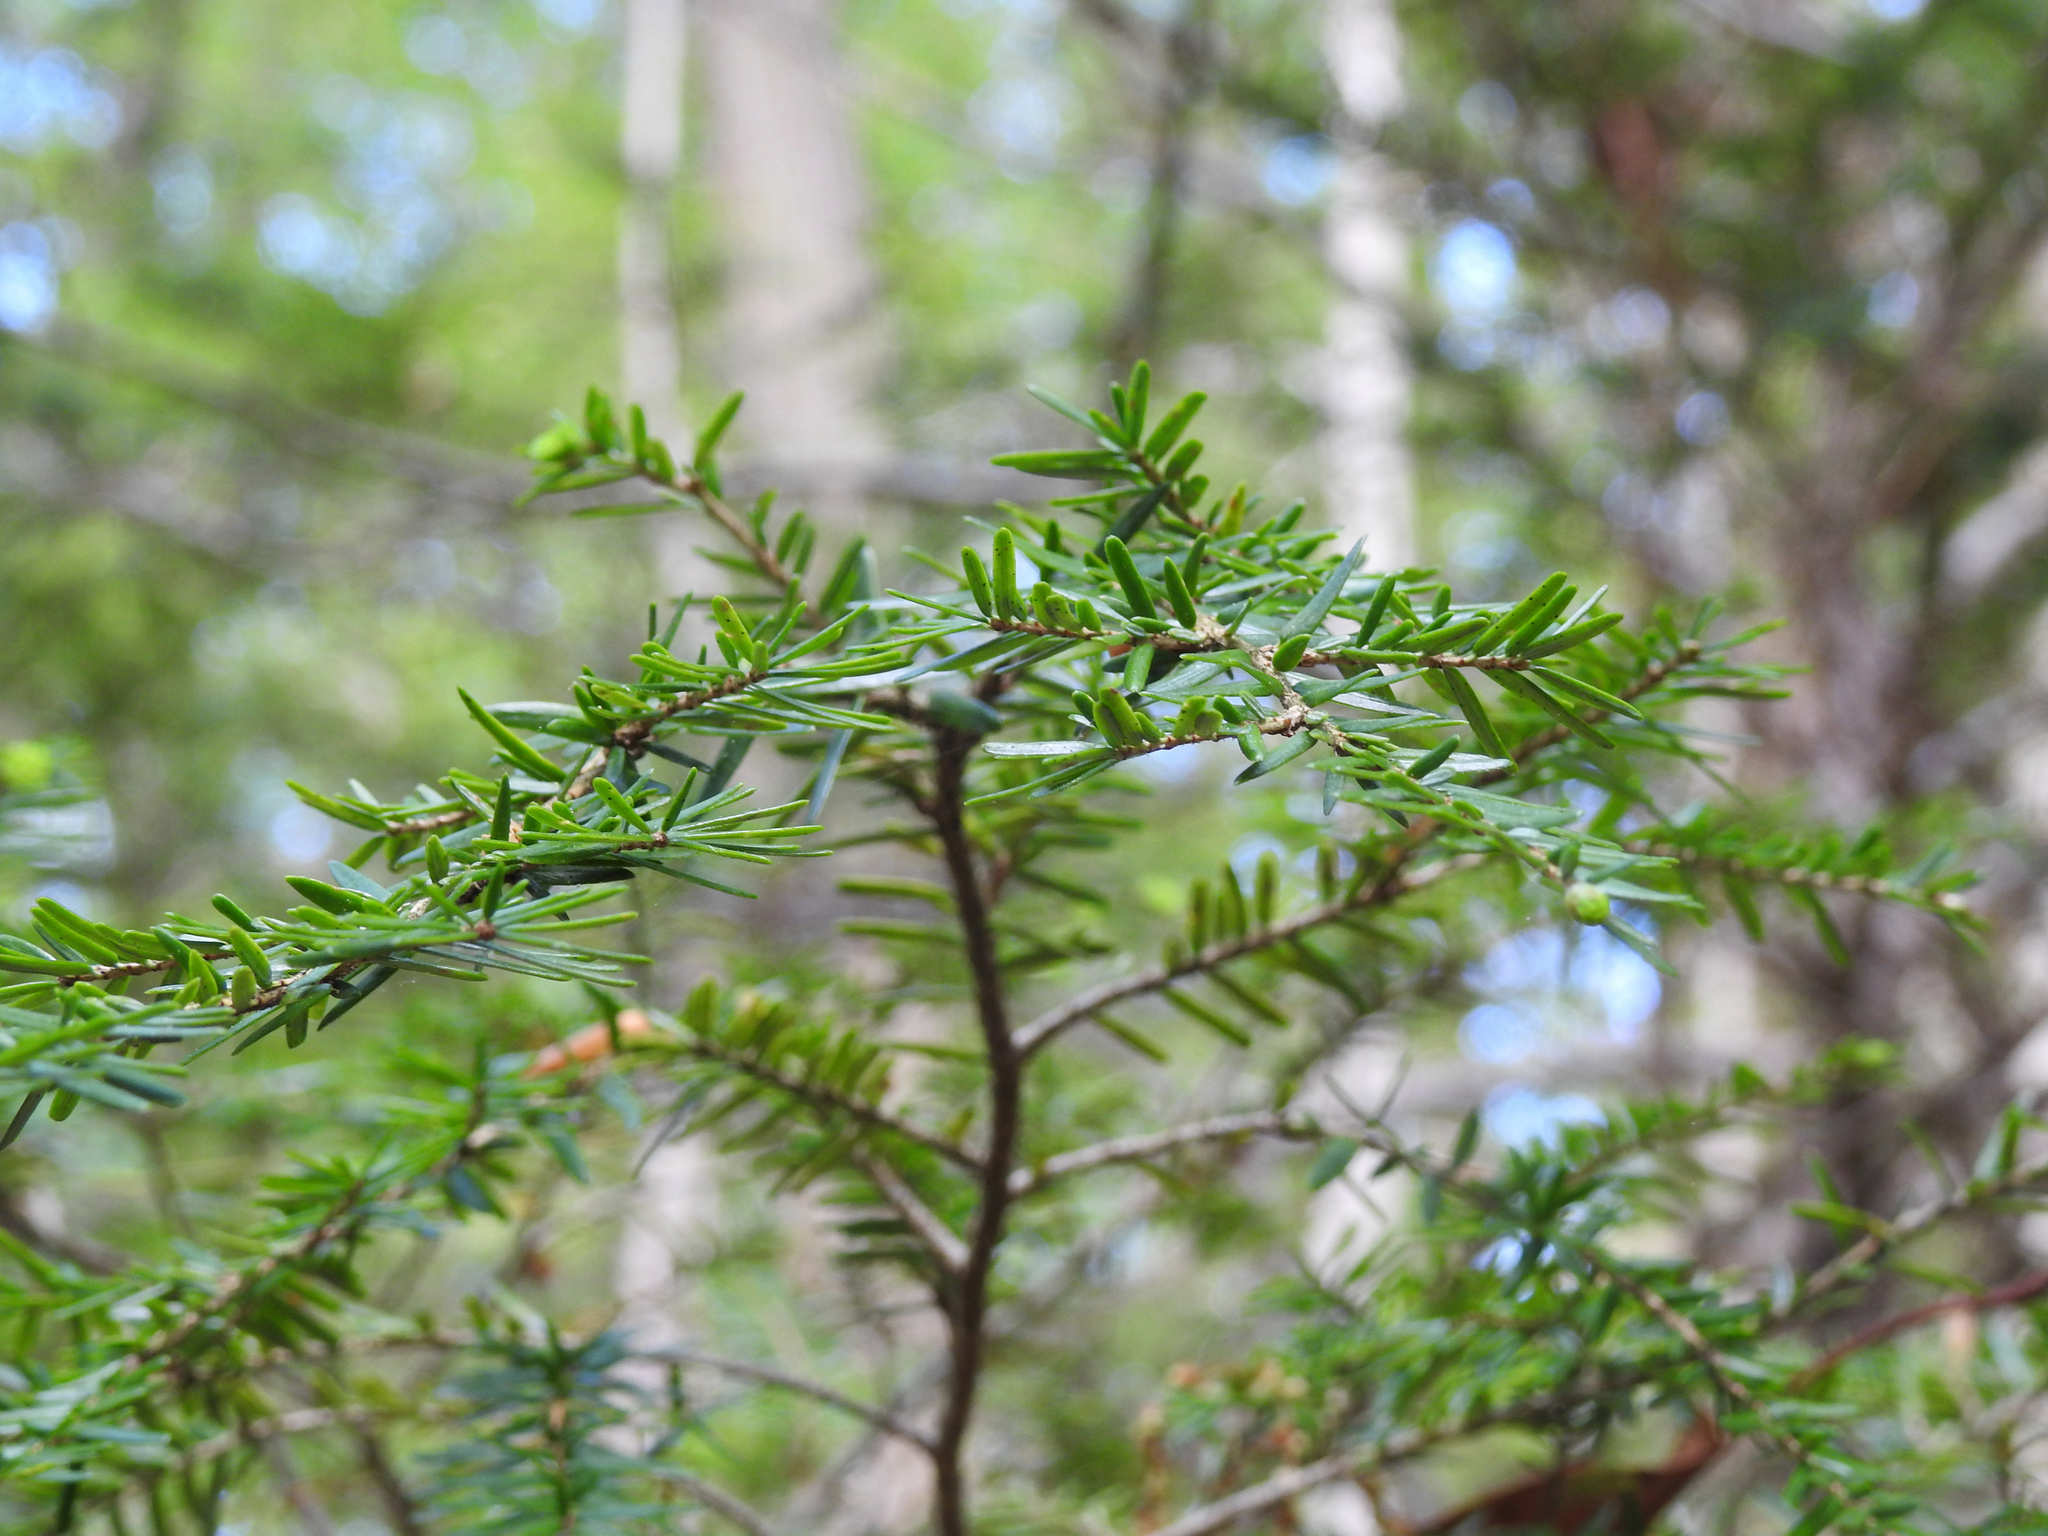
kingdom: Plantae
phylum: Tracheophyta
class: Pinopsida
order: Pinales
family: Pinaceae
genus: Tsuga
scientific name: Tsuga canadensis
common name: Eastern hemlock
